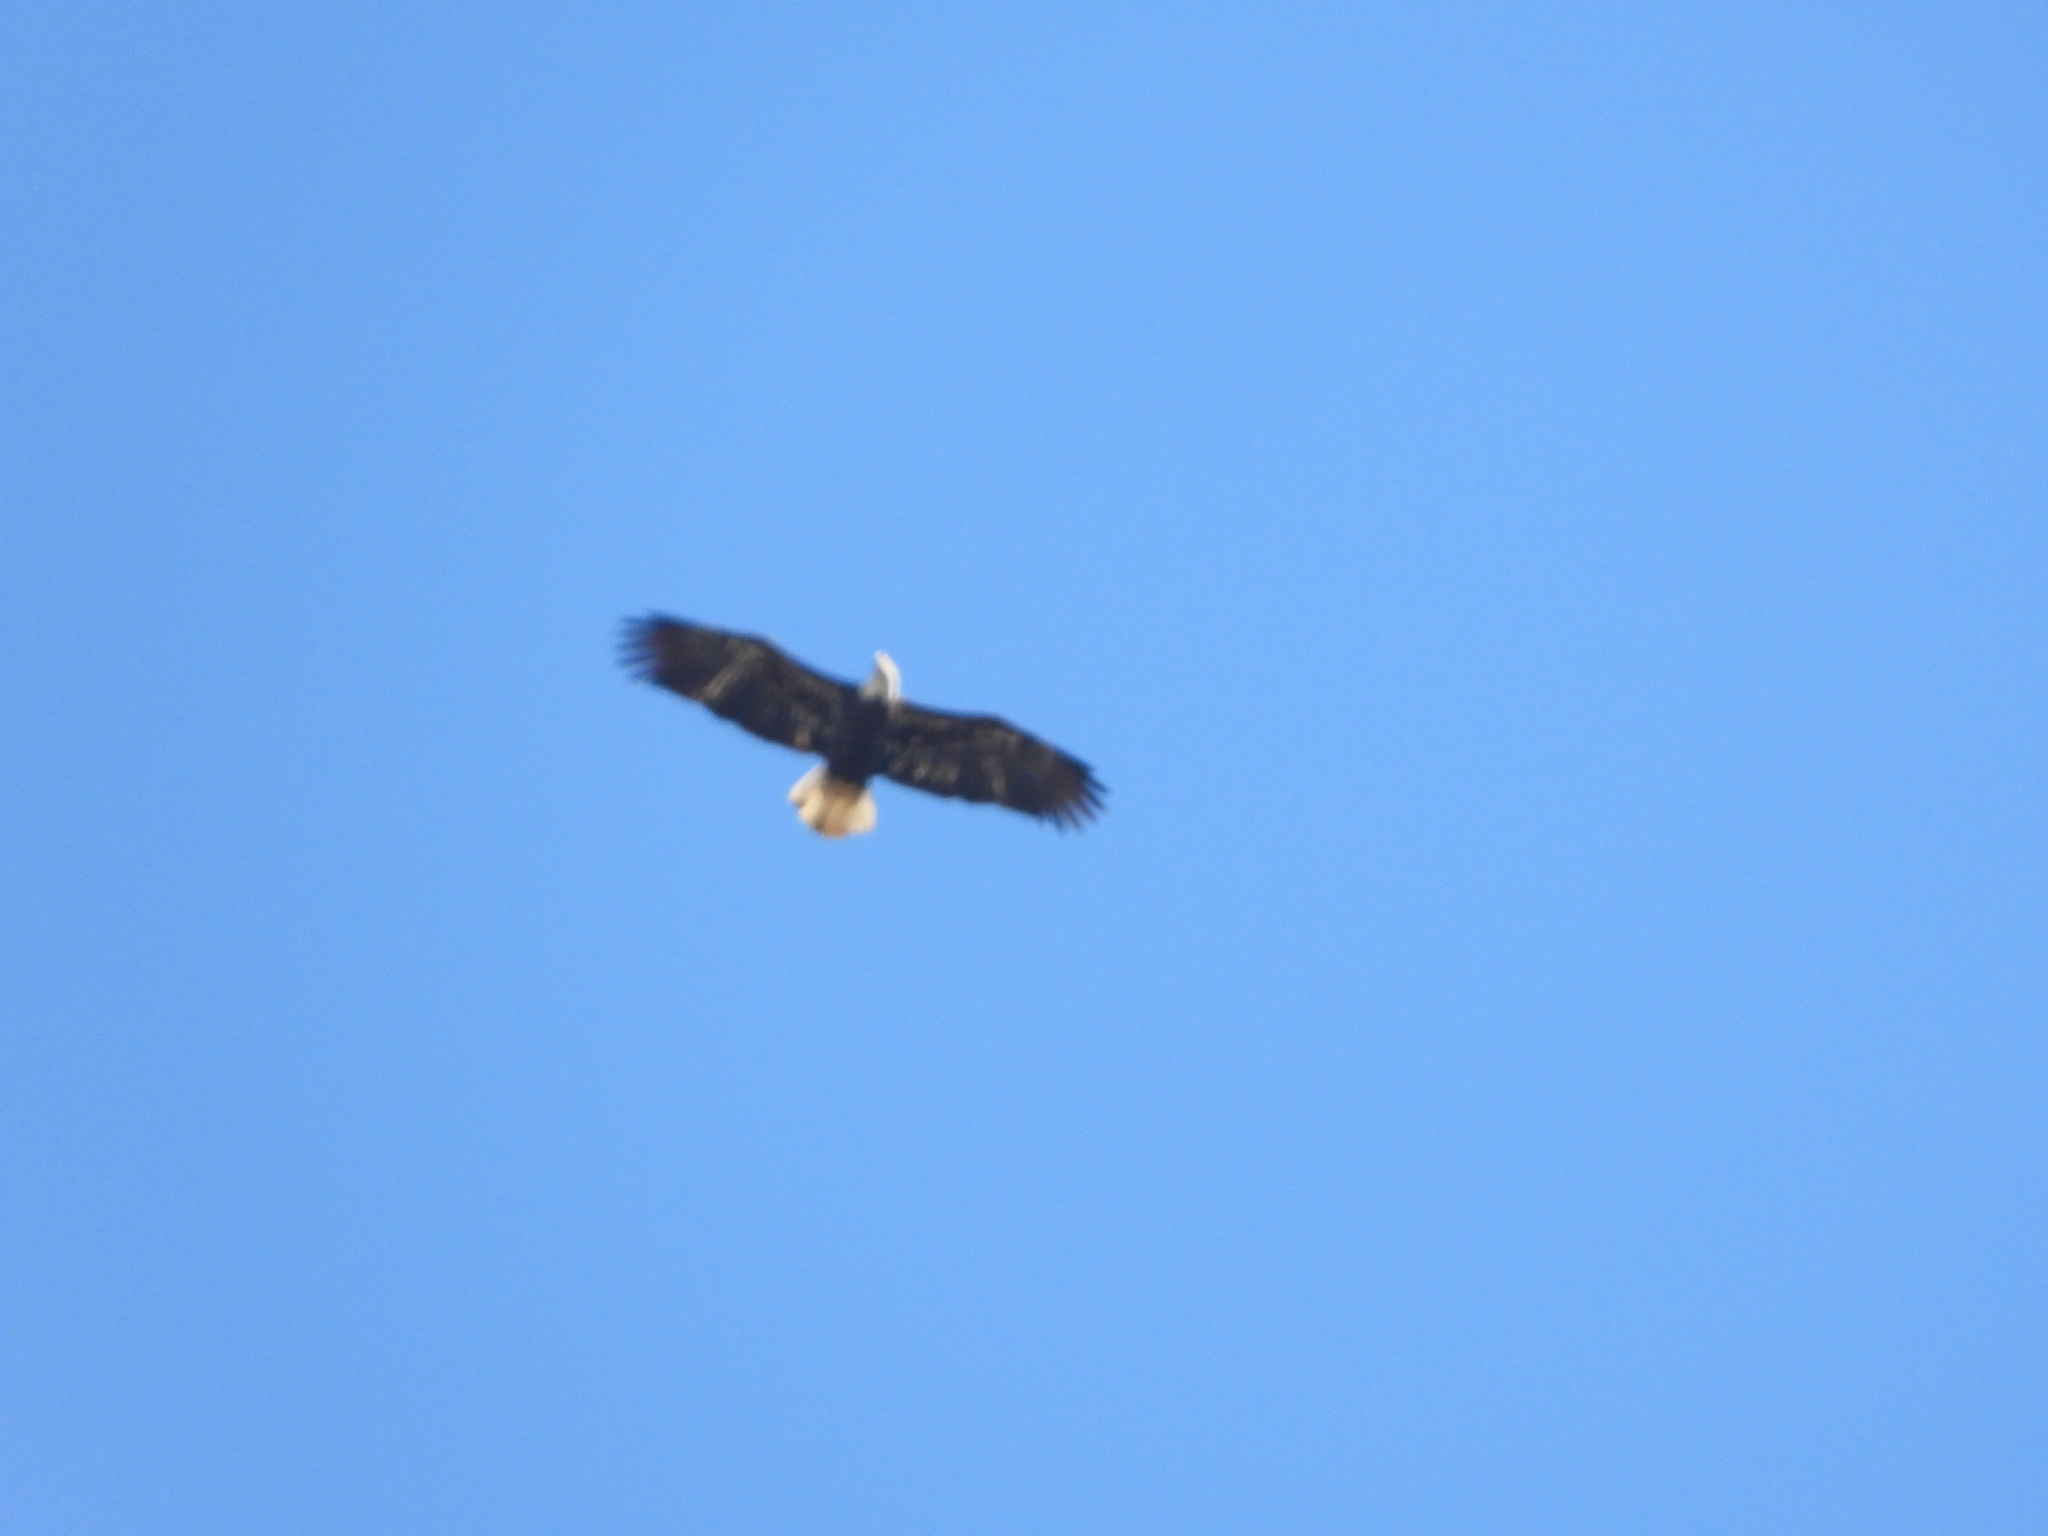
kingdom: Animalia
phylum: Chordata
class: Aves
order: Accipitriformes
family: Accipitridae
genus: Haliaeetus
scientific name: Haliaeetus leucocephalus
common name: Bald eagle
